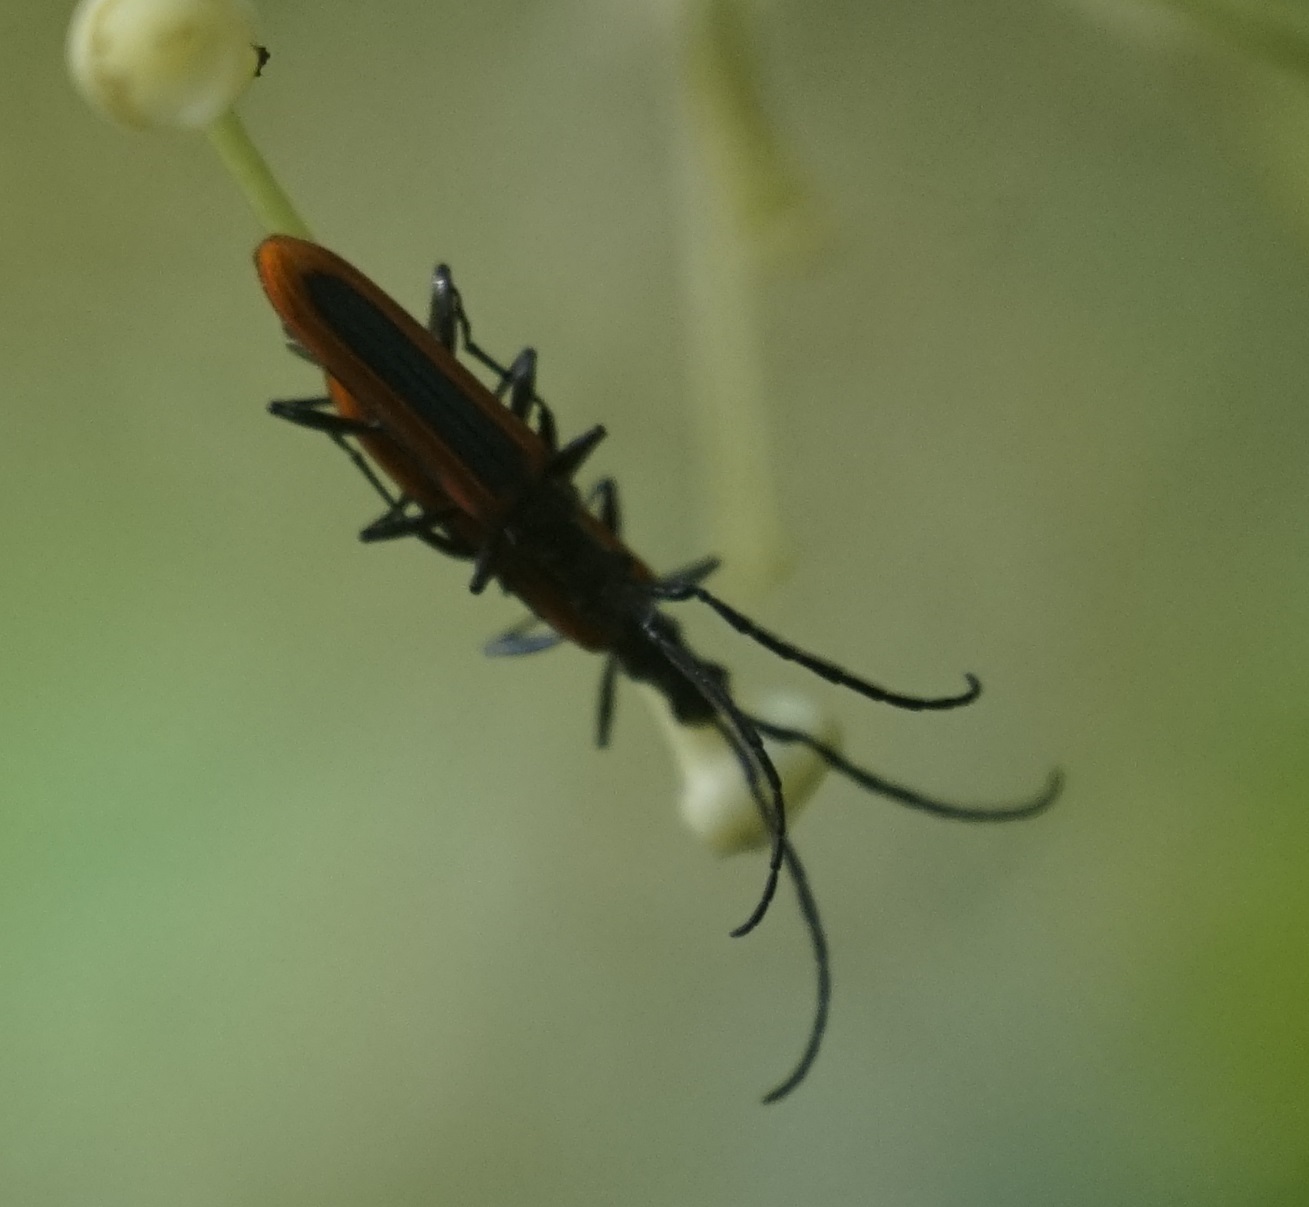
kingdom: Animalia
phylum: Arthropoda
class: Insecta
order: Coleoptera
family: Cerambycidae
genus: Stenoderus
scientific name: Stenoderus suturalis
